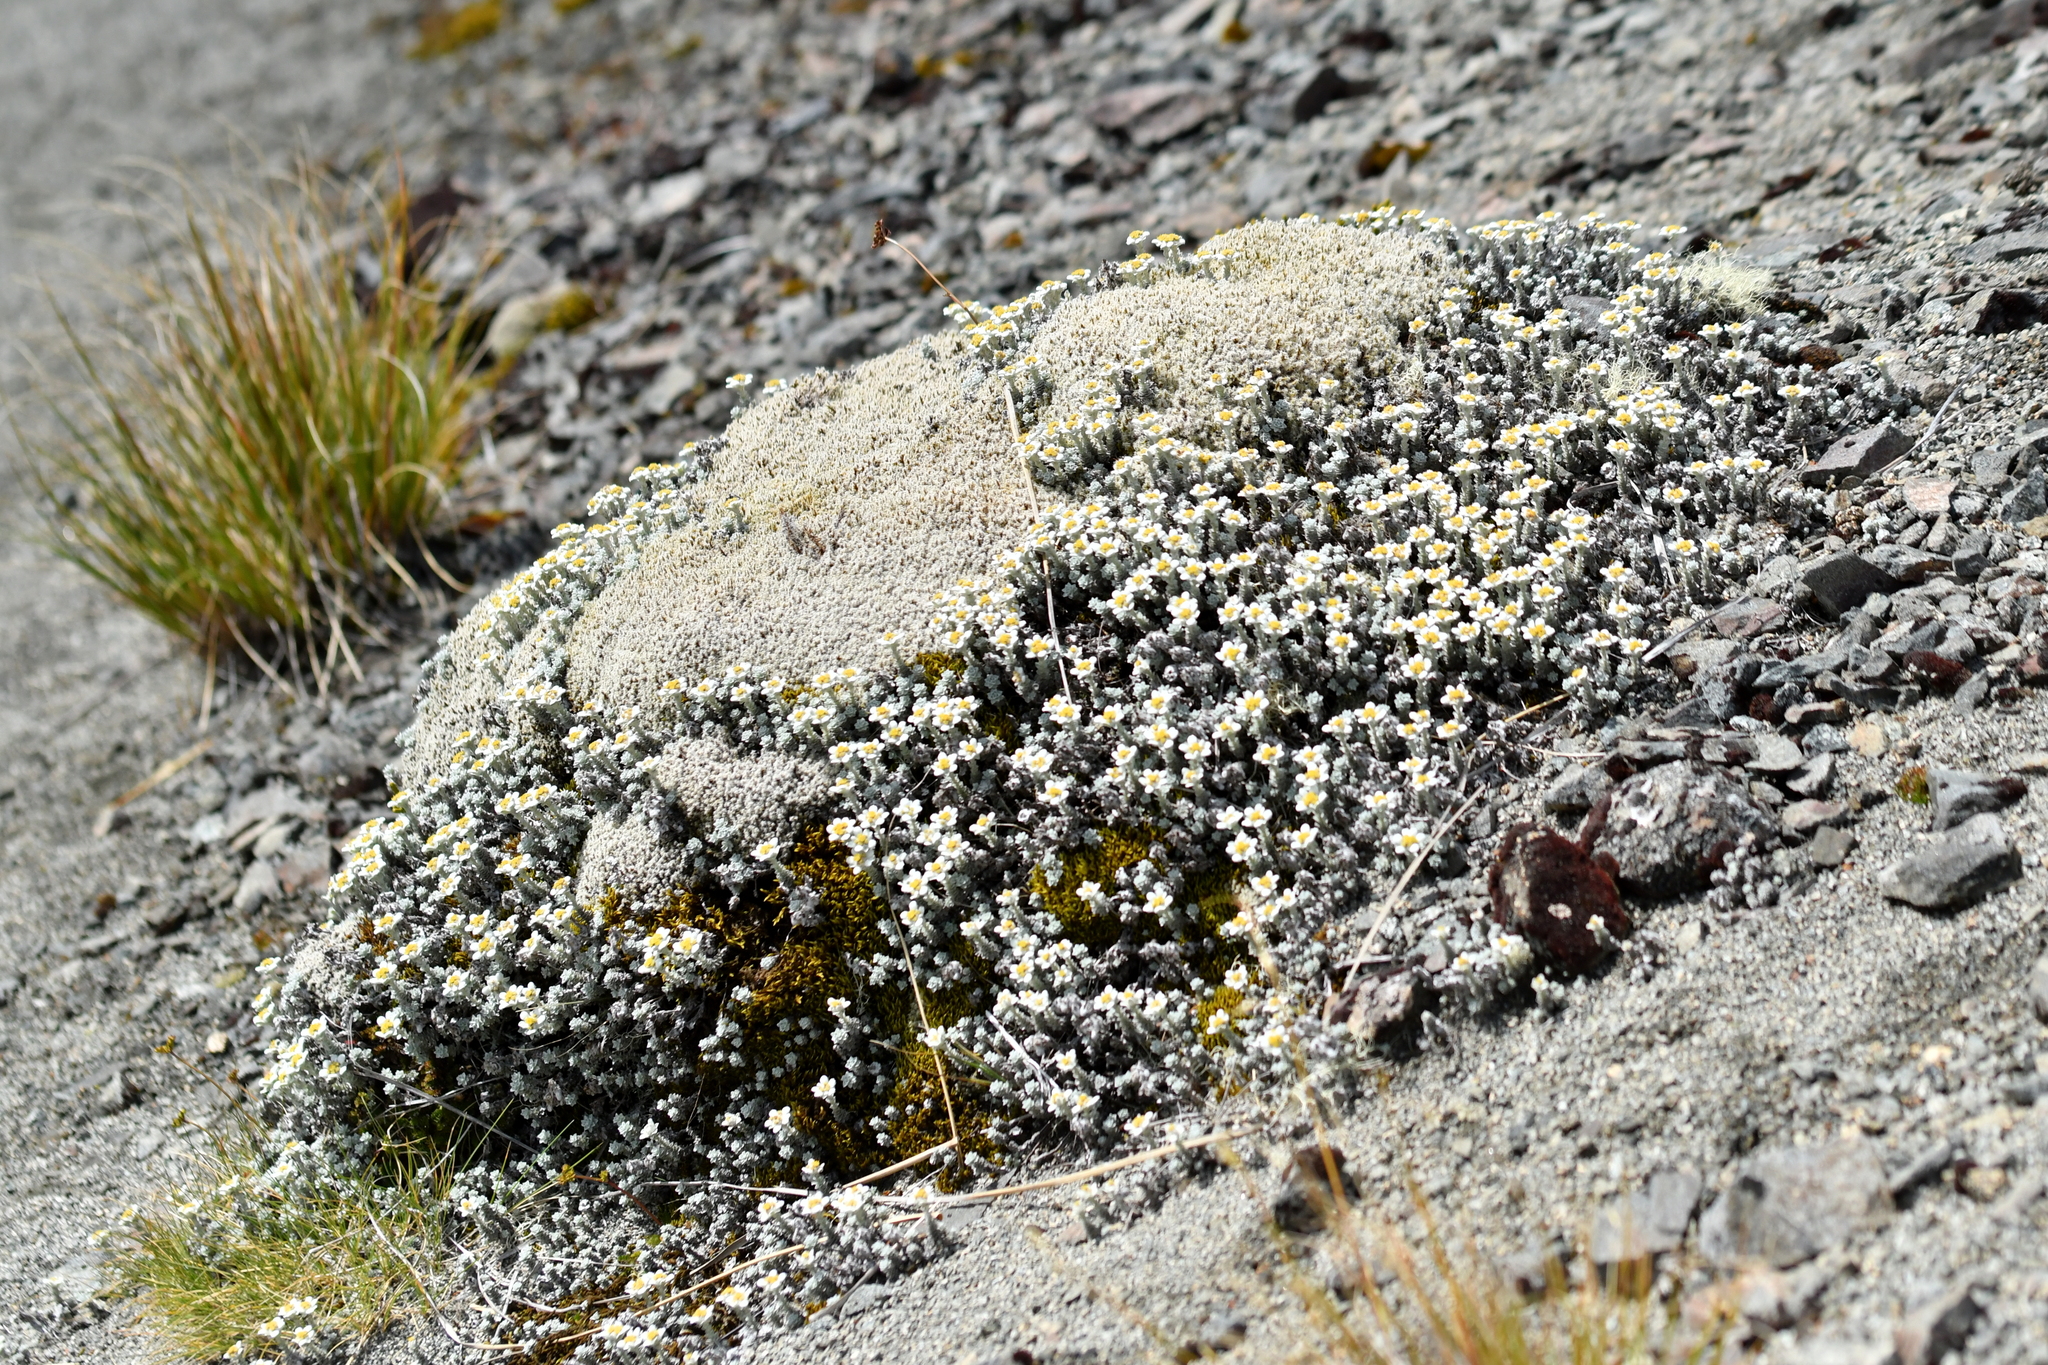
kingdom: Plantae
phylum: Tracheophyta
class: Magnoliopsida
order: Asterales
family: Asteraceae
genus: Leucogenes
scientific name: Leucogenes grandiceps
